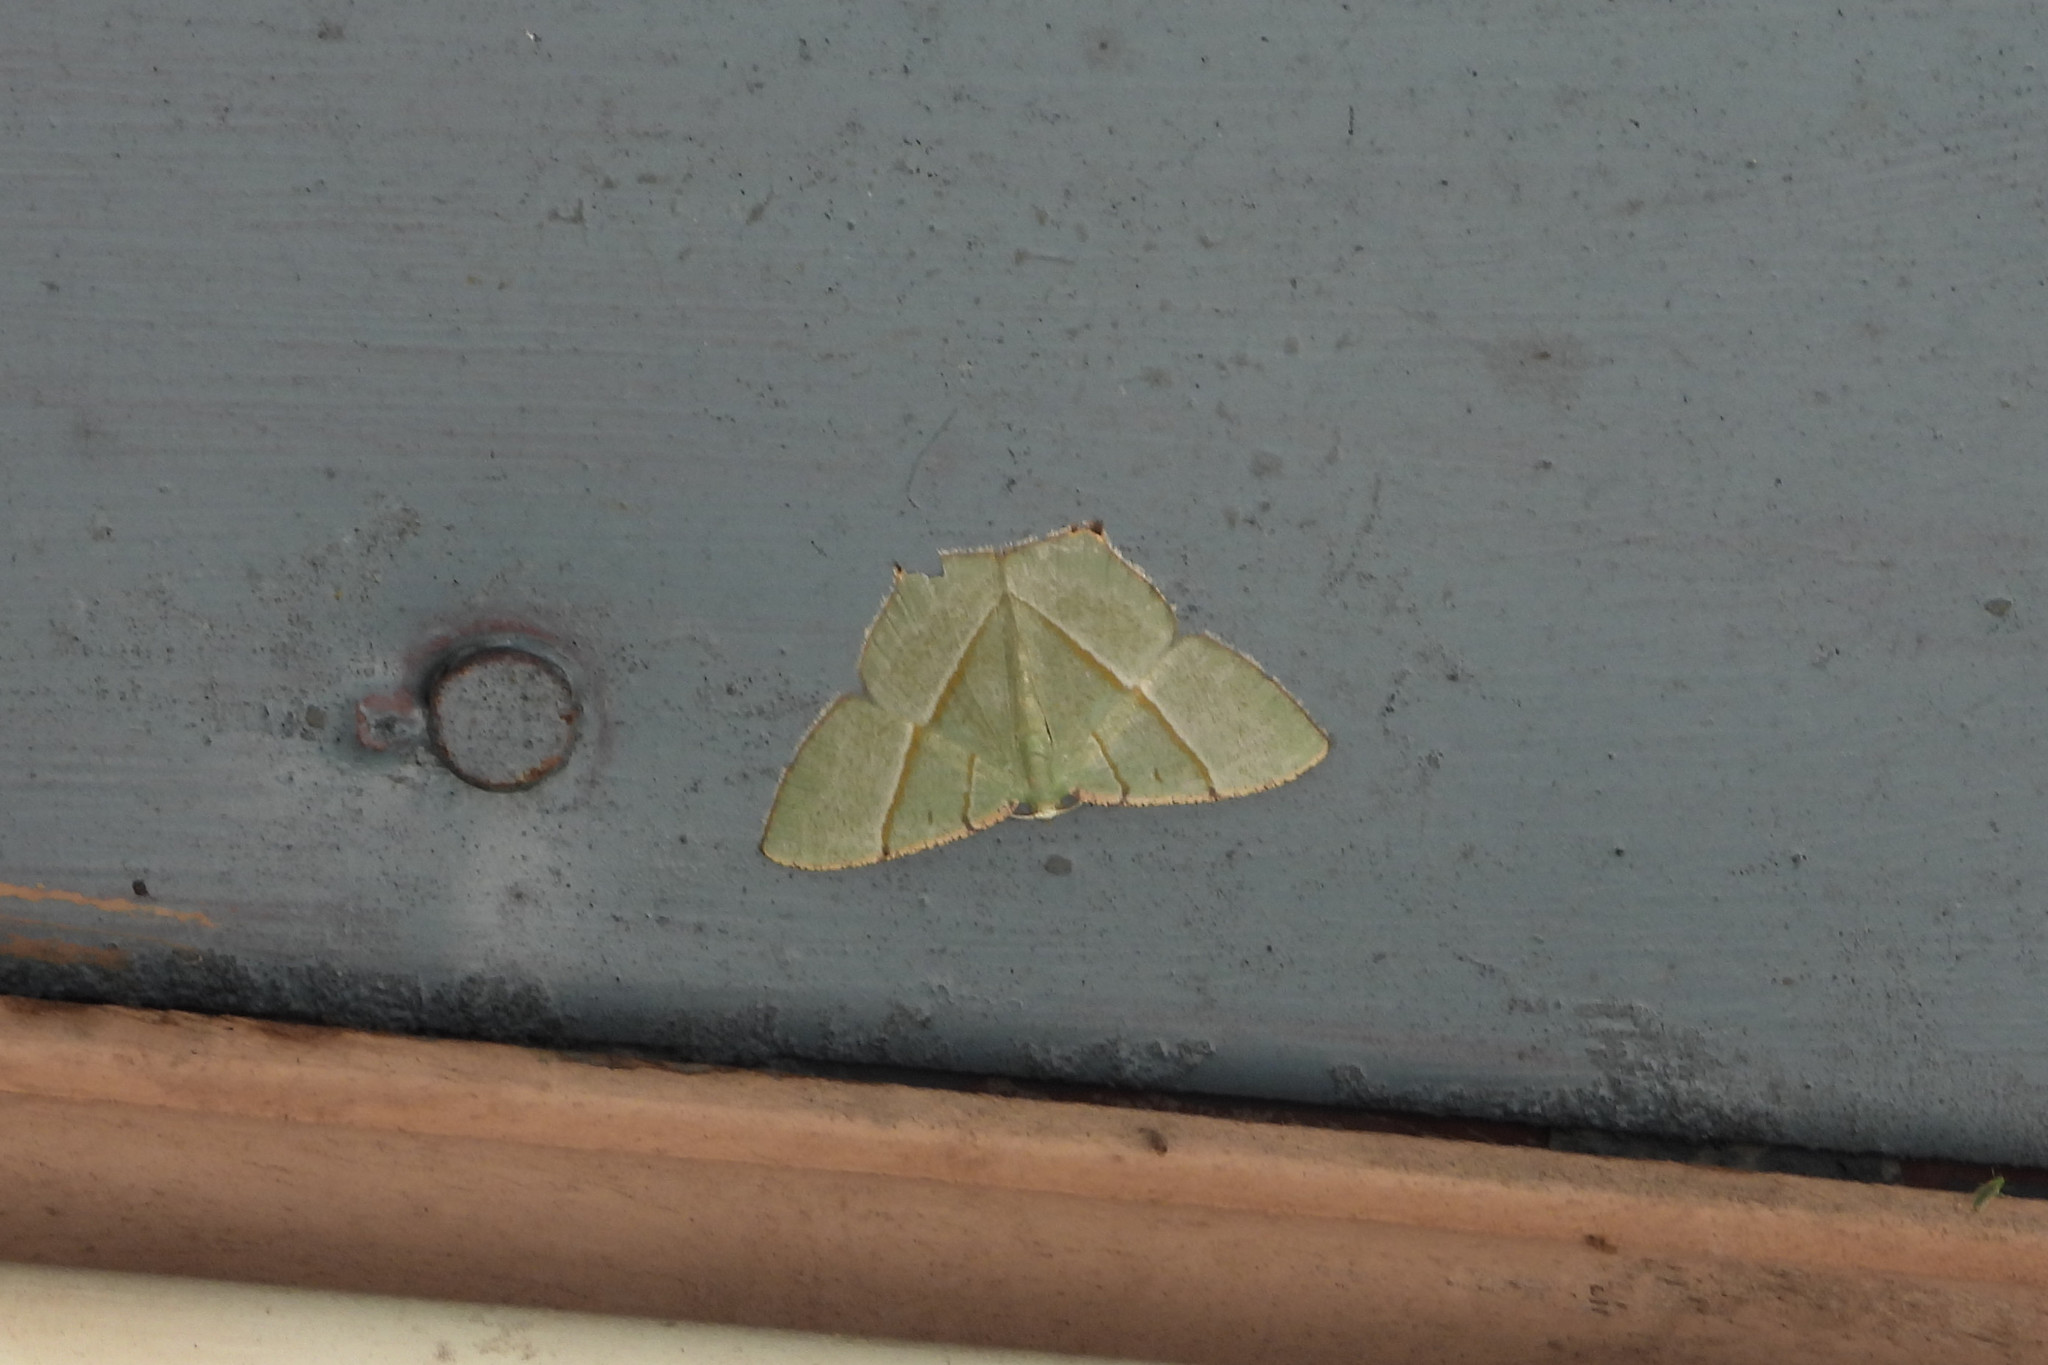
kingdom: Animalia
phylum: Arthropoda
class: Insecta
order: Lepidoptera
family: Geometridae
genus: Neohipparchus
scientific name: Neohipparchus vallata
